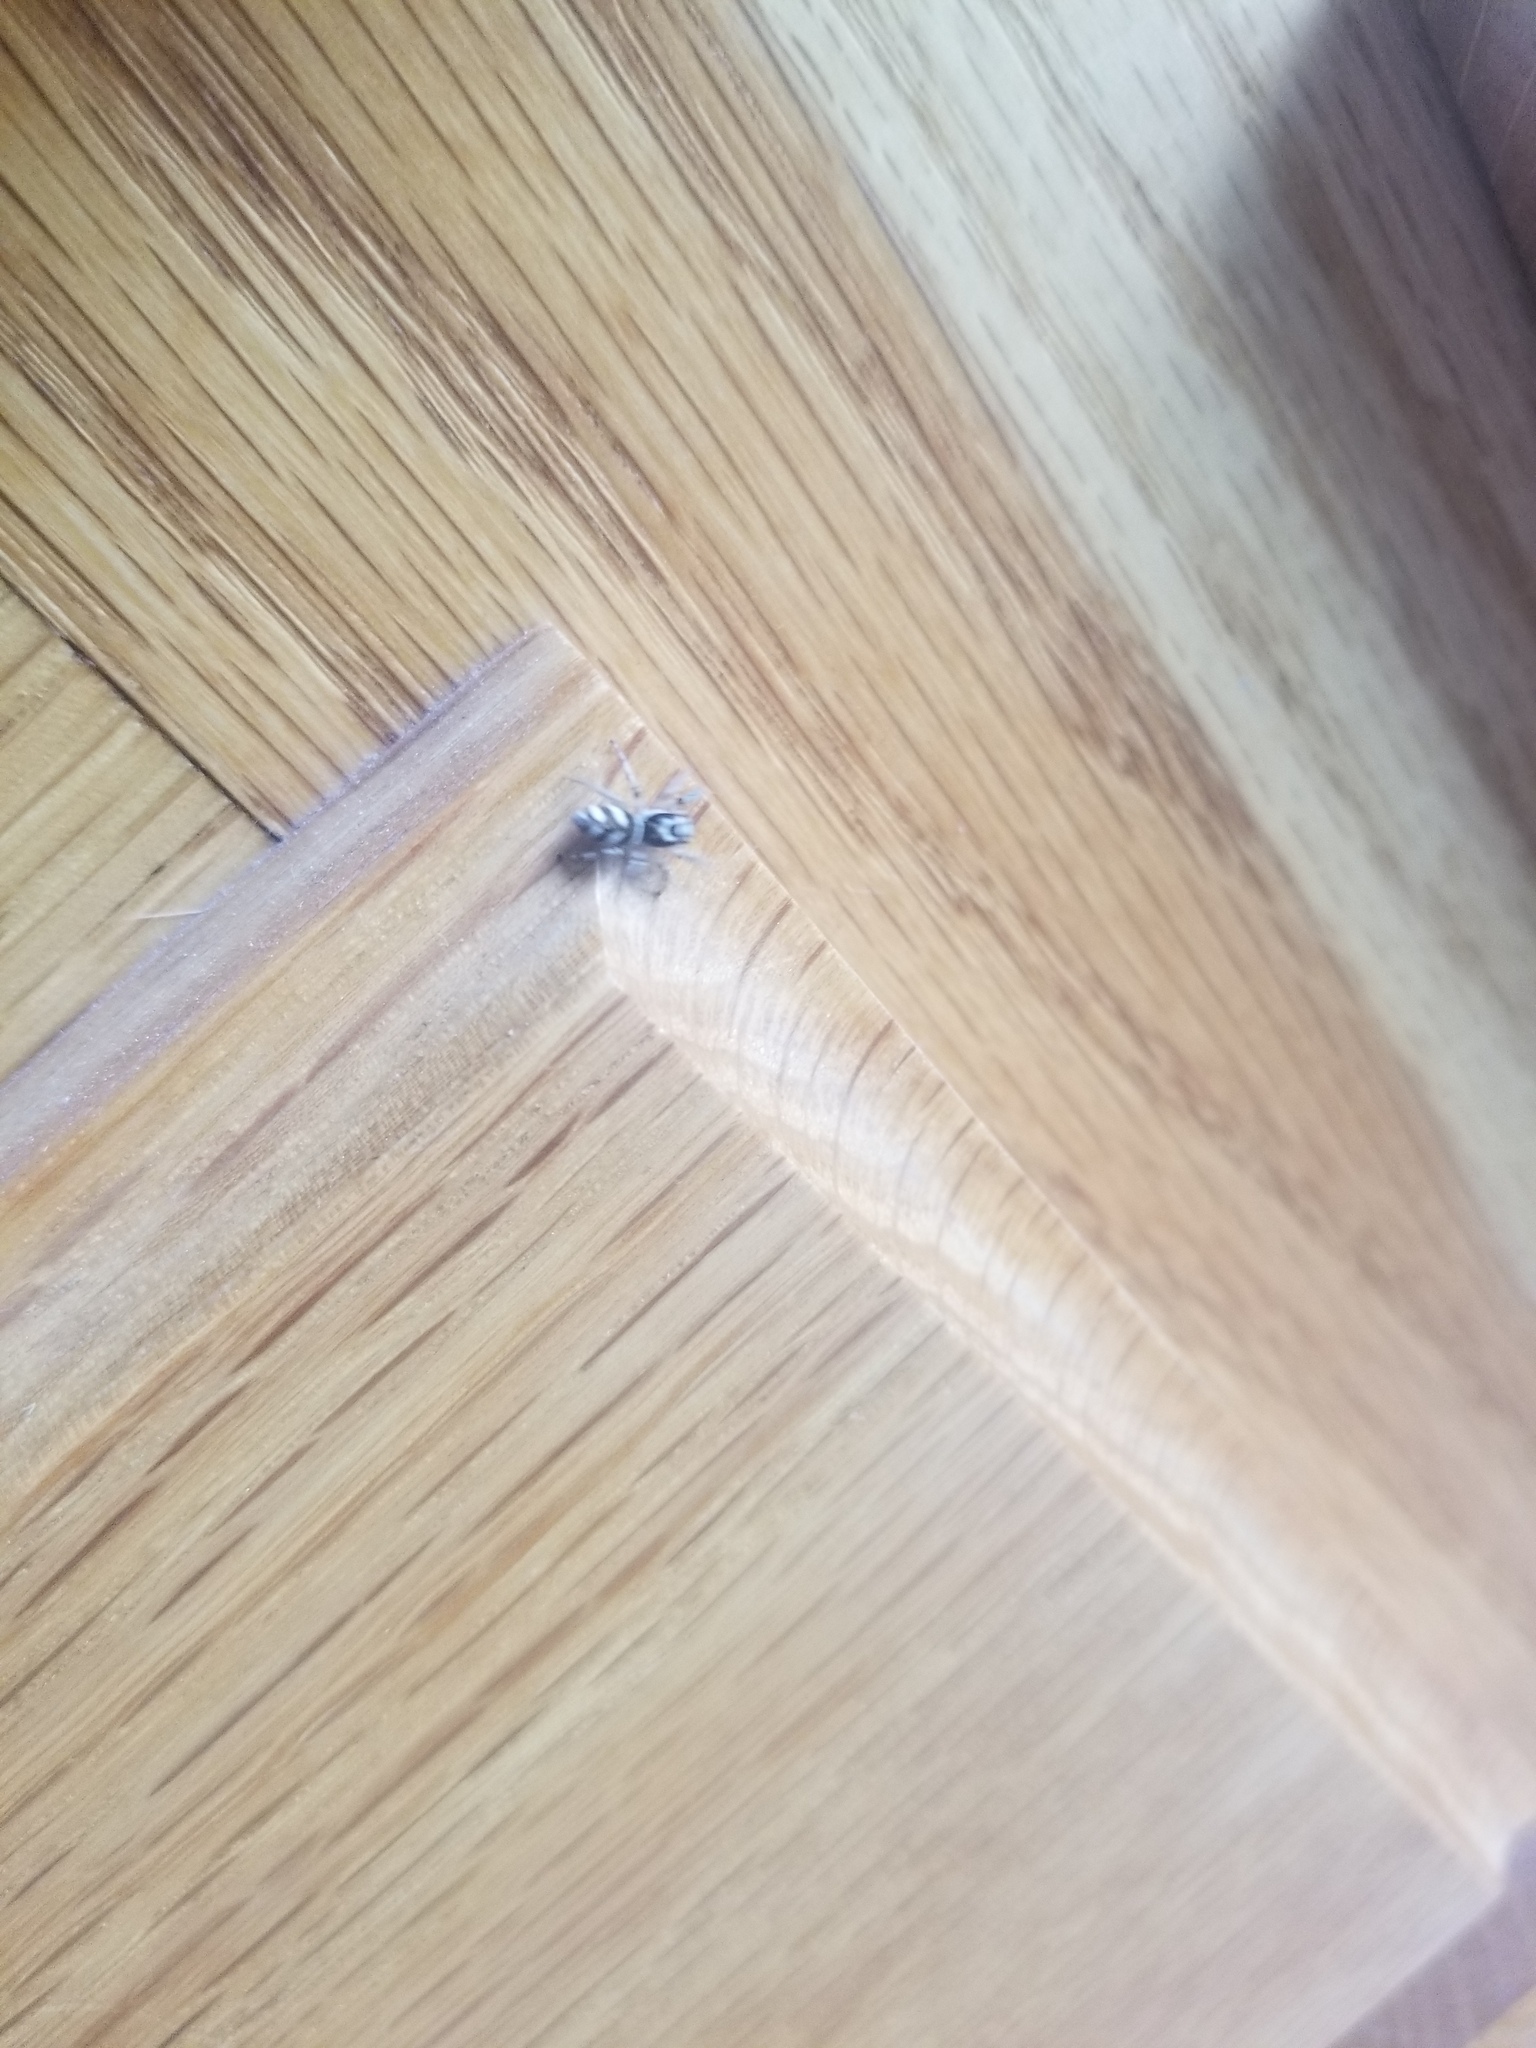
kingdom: Animalia
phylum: Arthropoda
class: Arachnida
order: Araneae
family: Salticidae
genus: Salticus
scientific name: Salticus scenicus
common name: Zebra jumper
